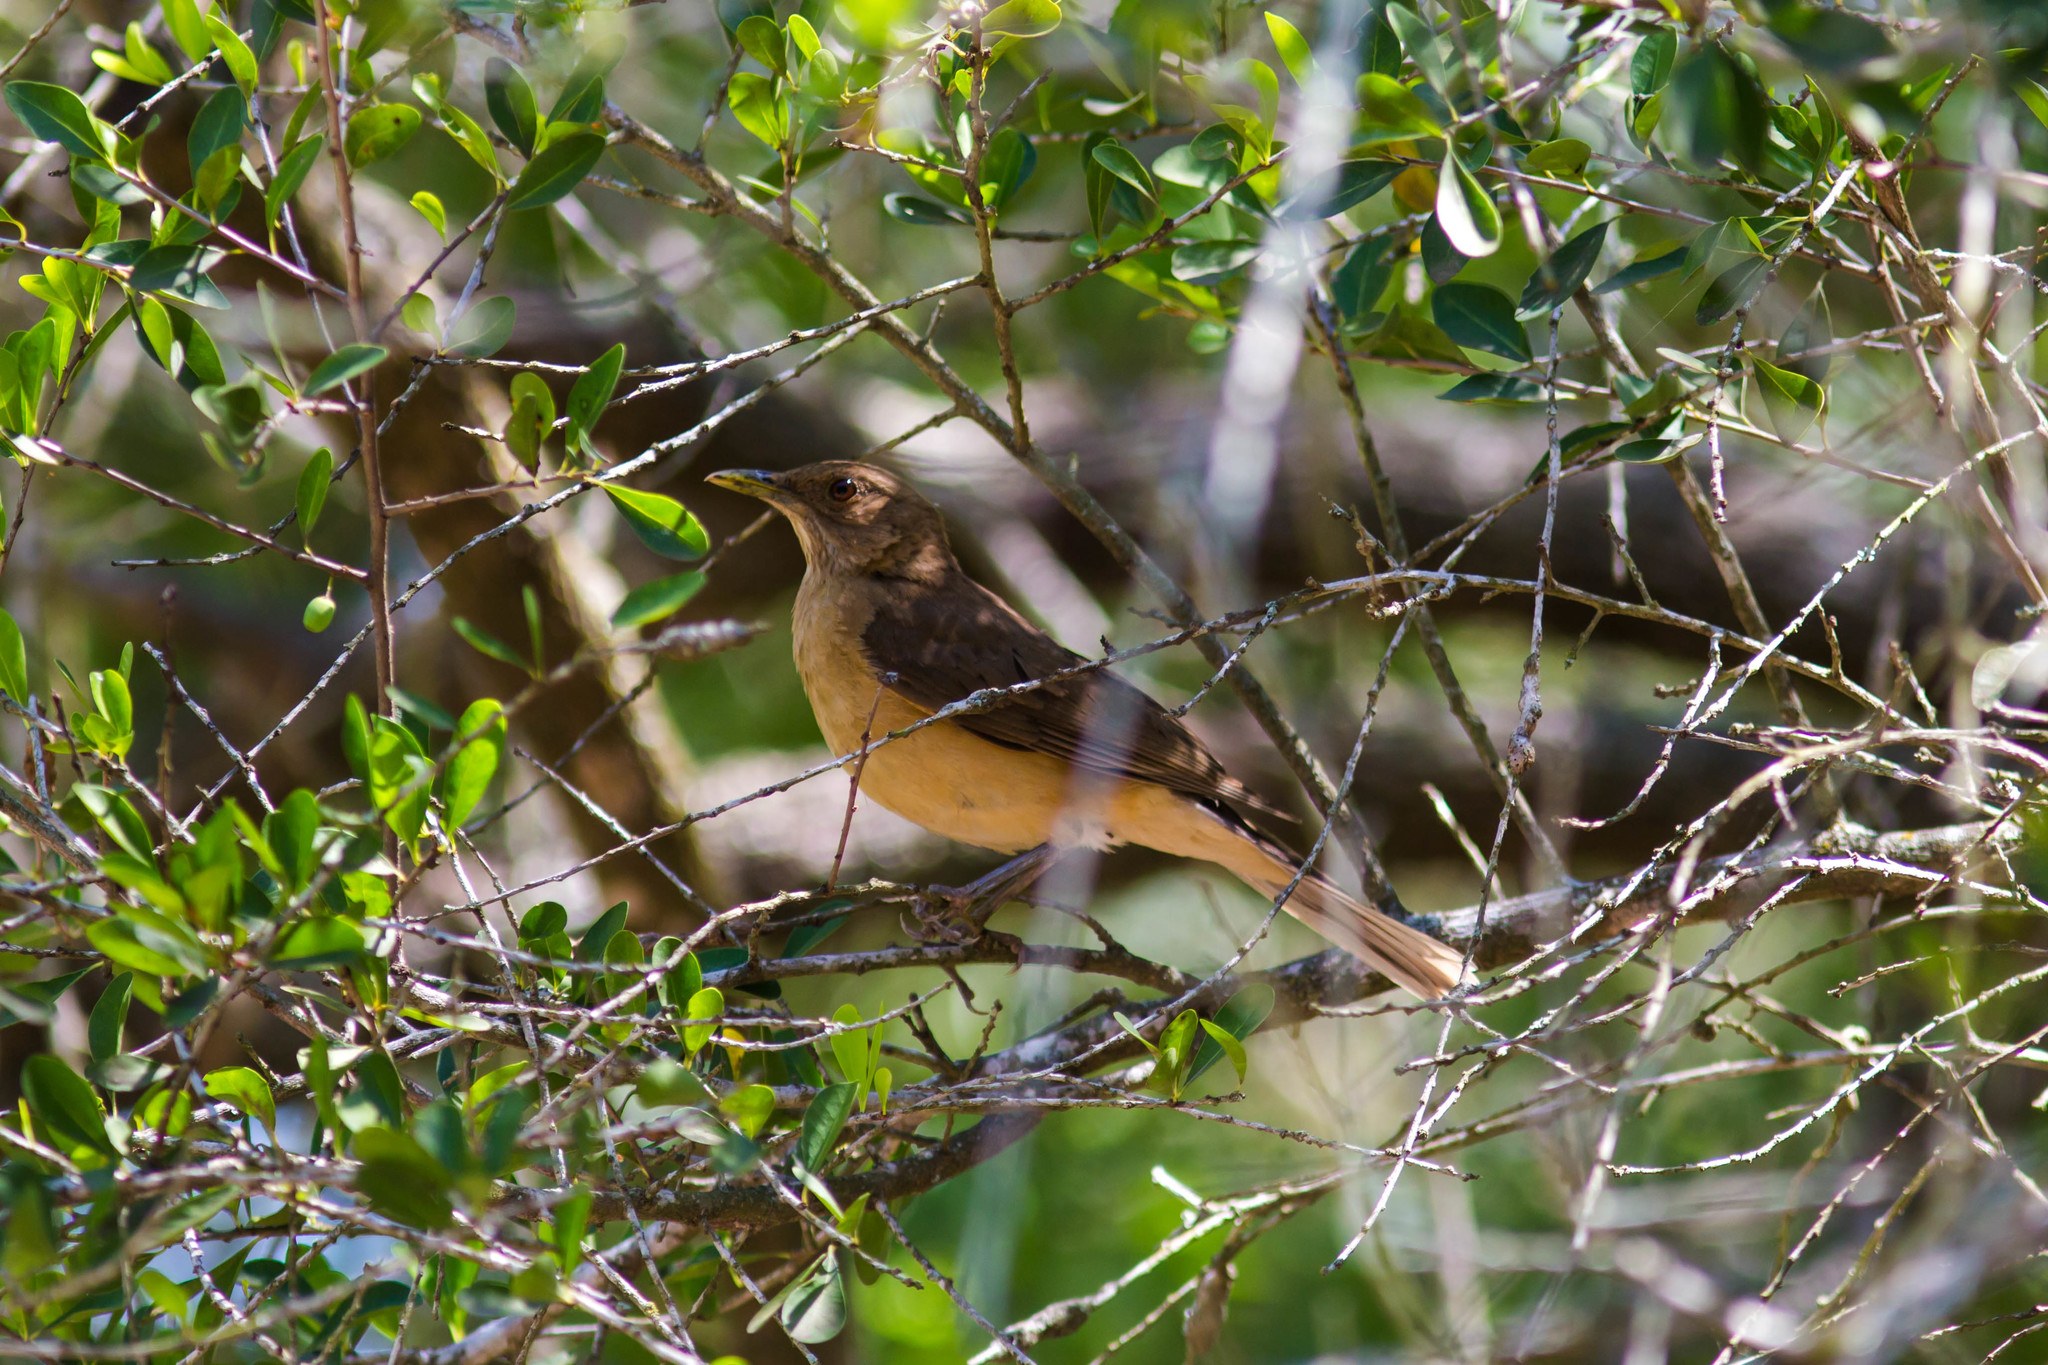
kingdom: Animalia
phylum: Chordata
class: Aves
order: Passeriformes
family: Turdidae
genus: Turdus
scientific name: Turdus grayi
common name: Clay-colored thrush
